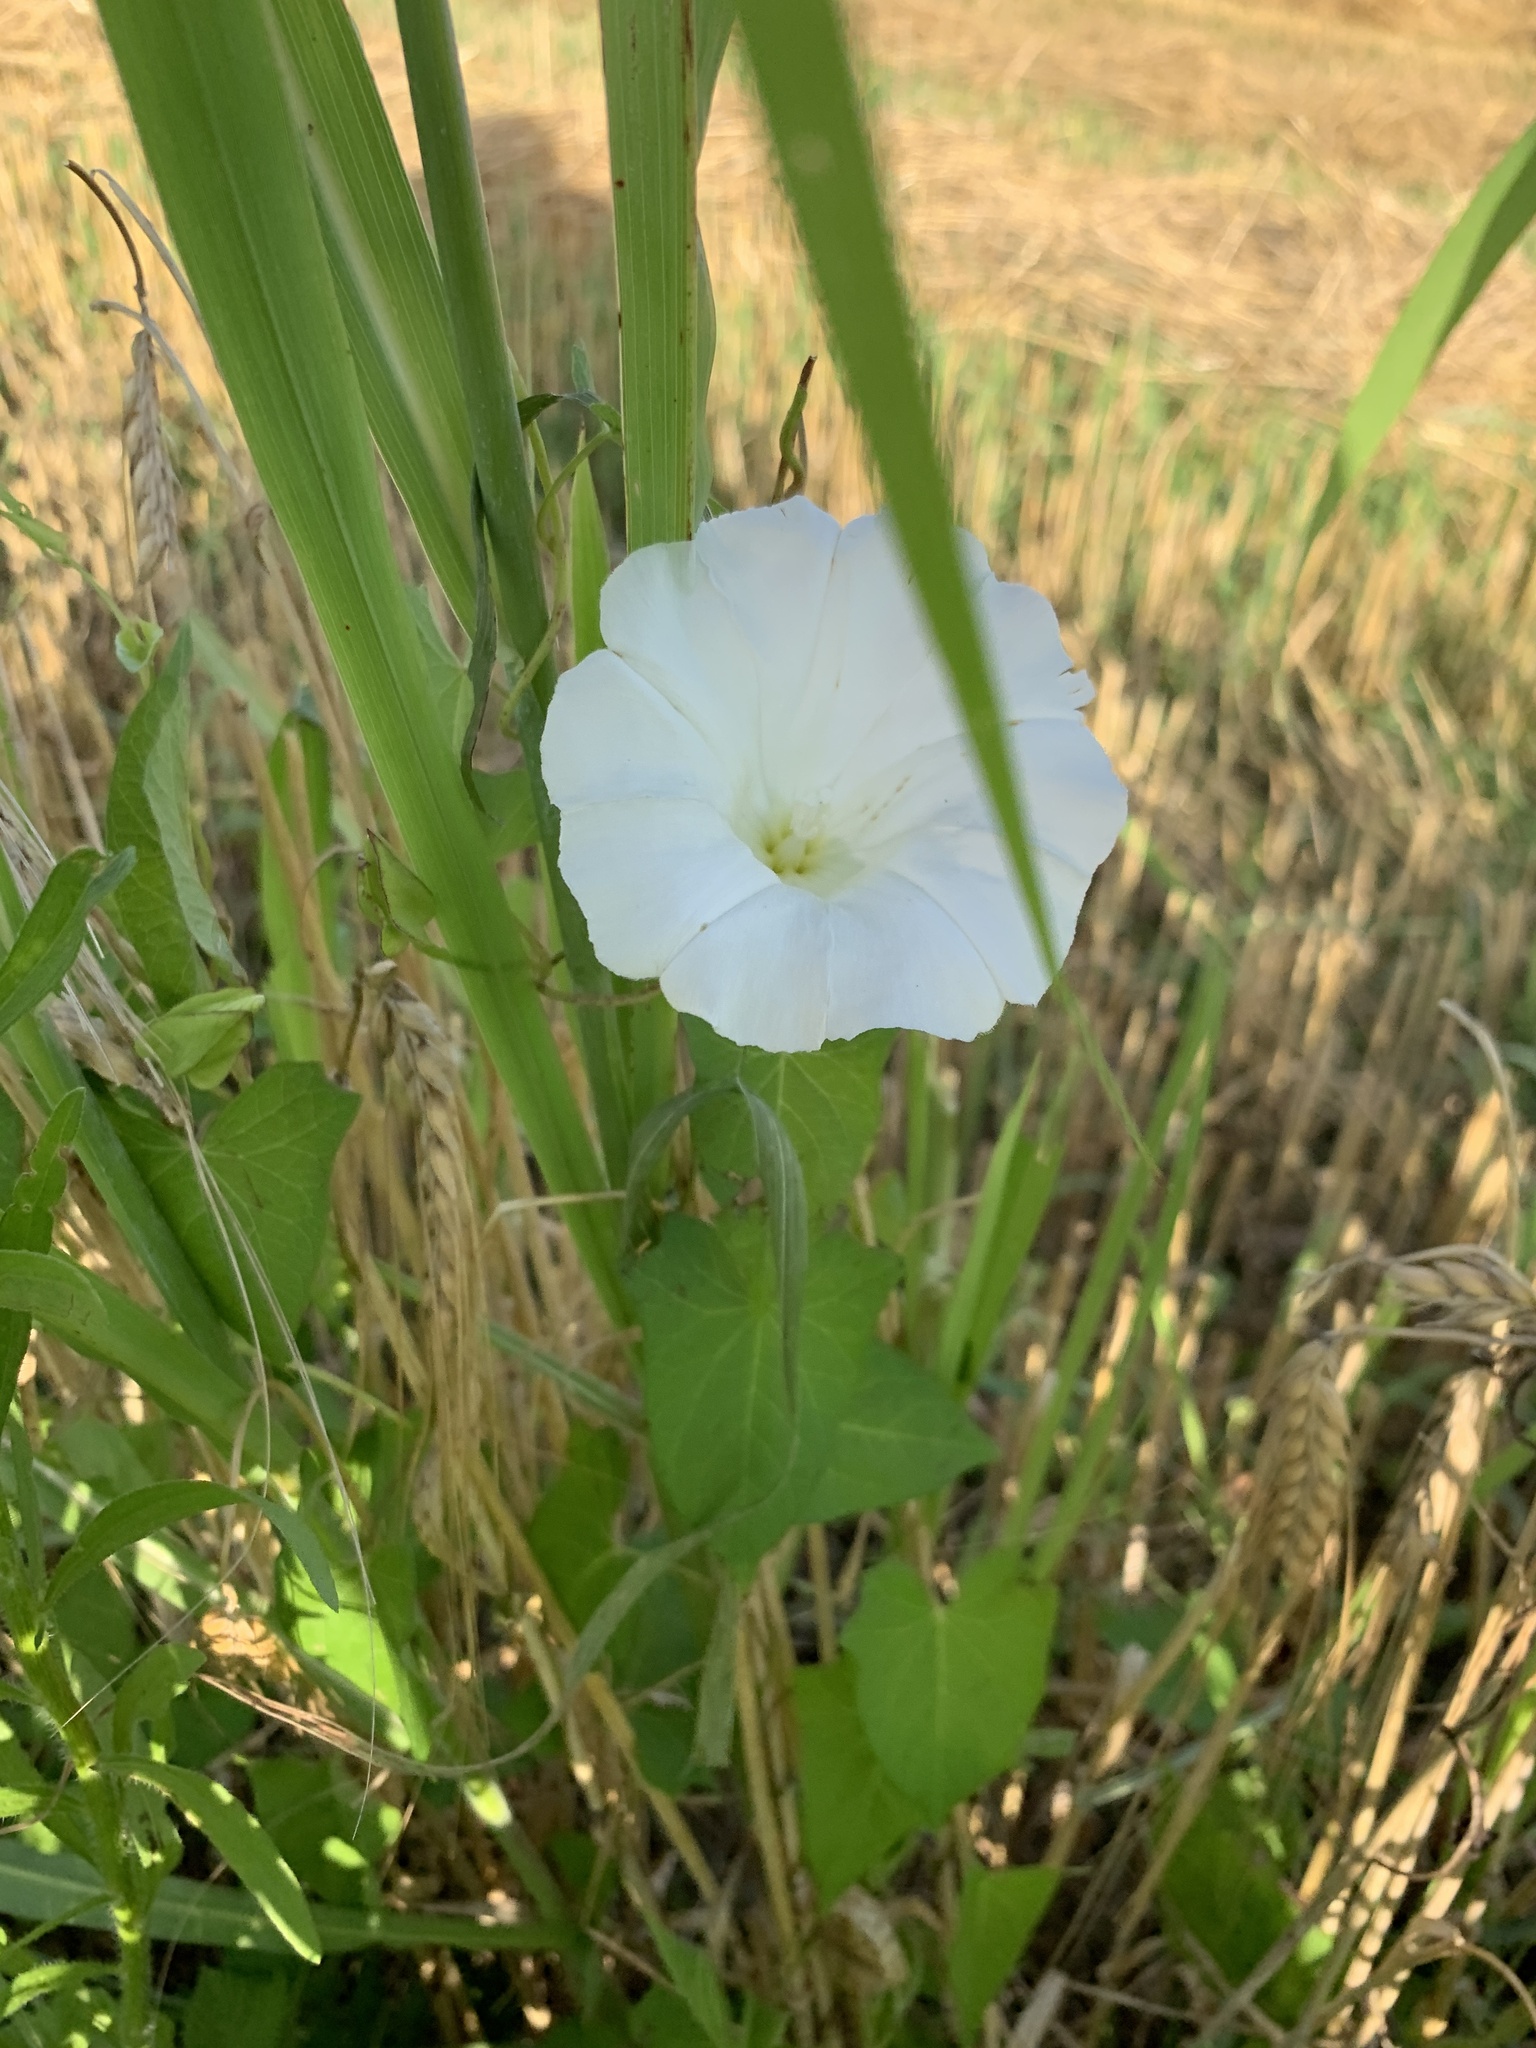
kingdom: Plantae
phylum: Tracheophyta
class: Magnoliopsida
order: Solanales
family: Convolvulaceae
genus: Calystegia
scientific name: Calystegia sepium
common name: Hedge bindweed
